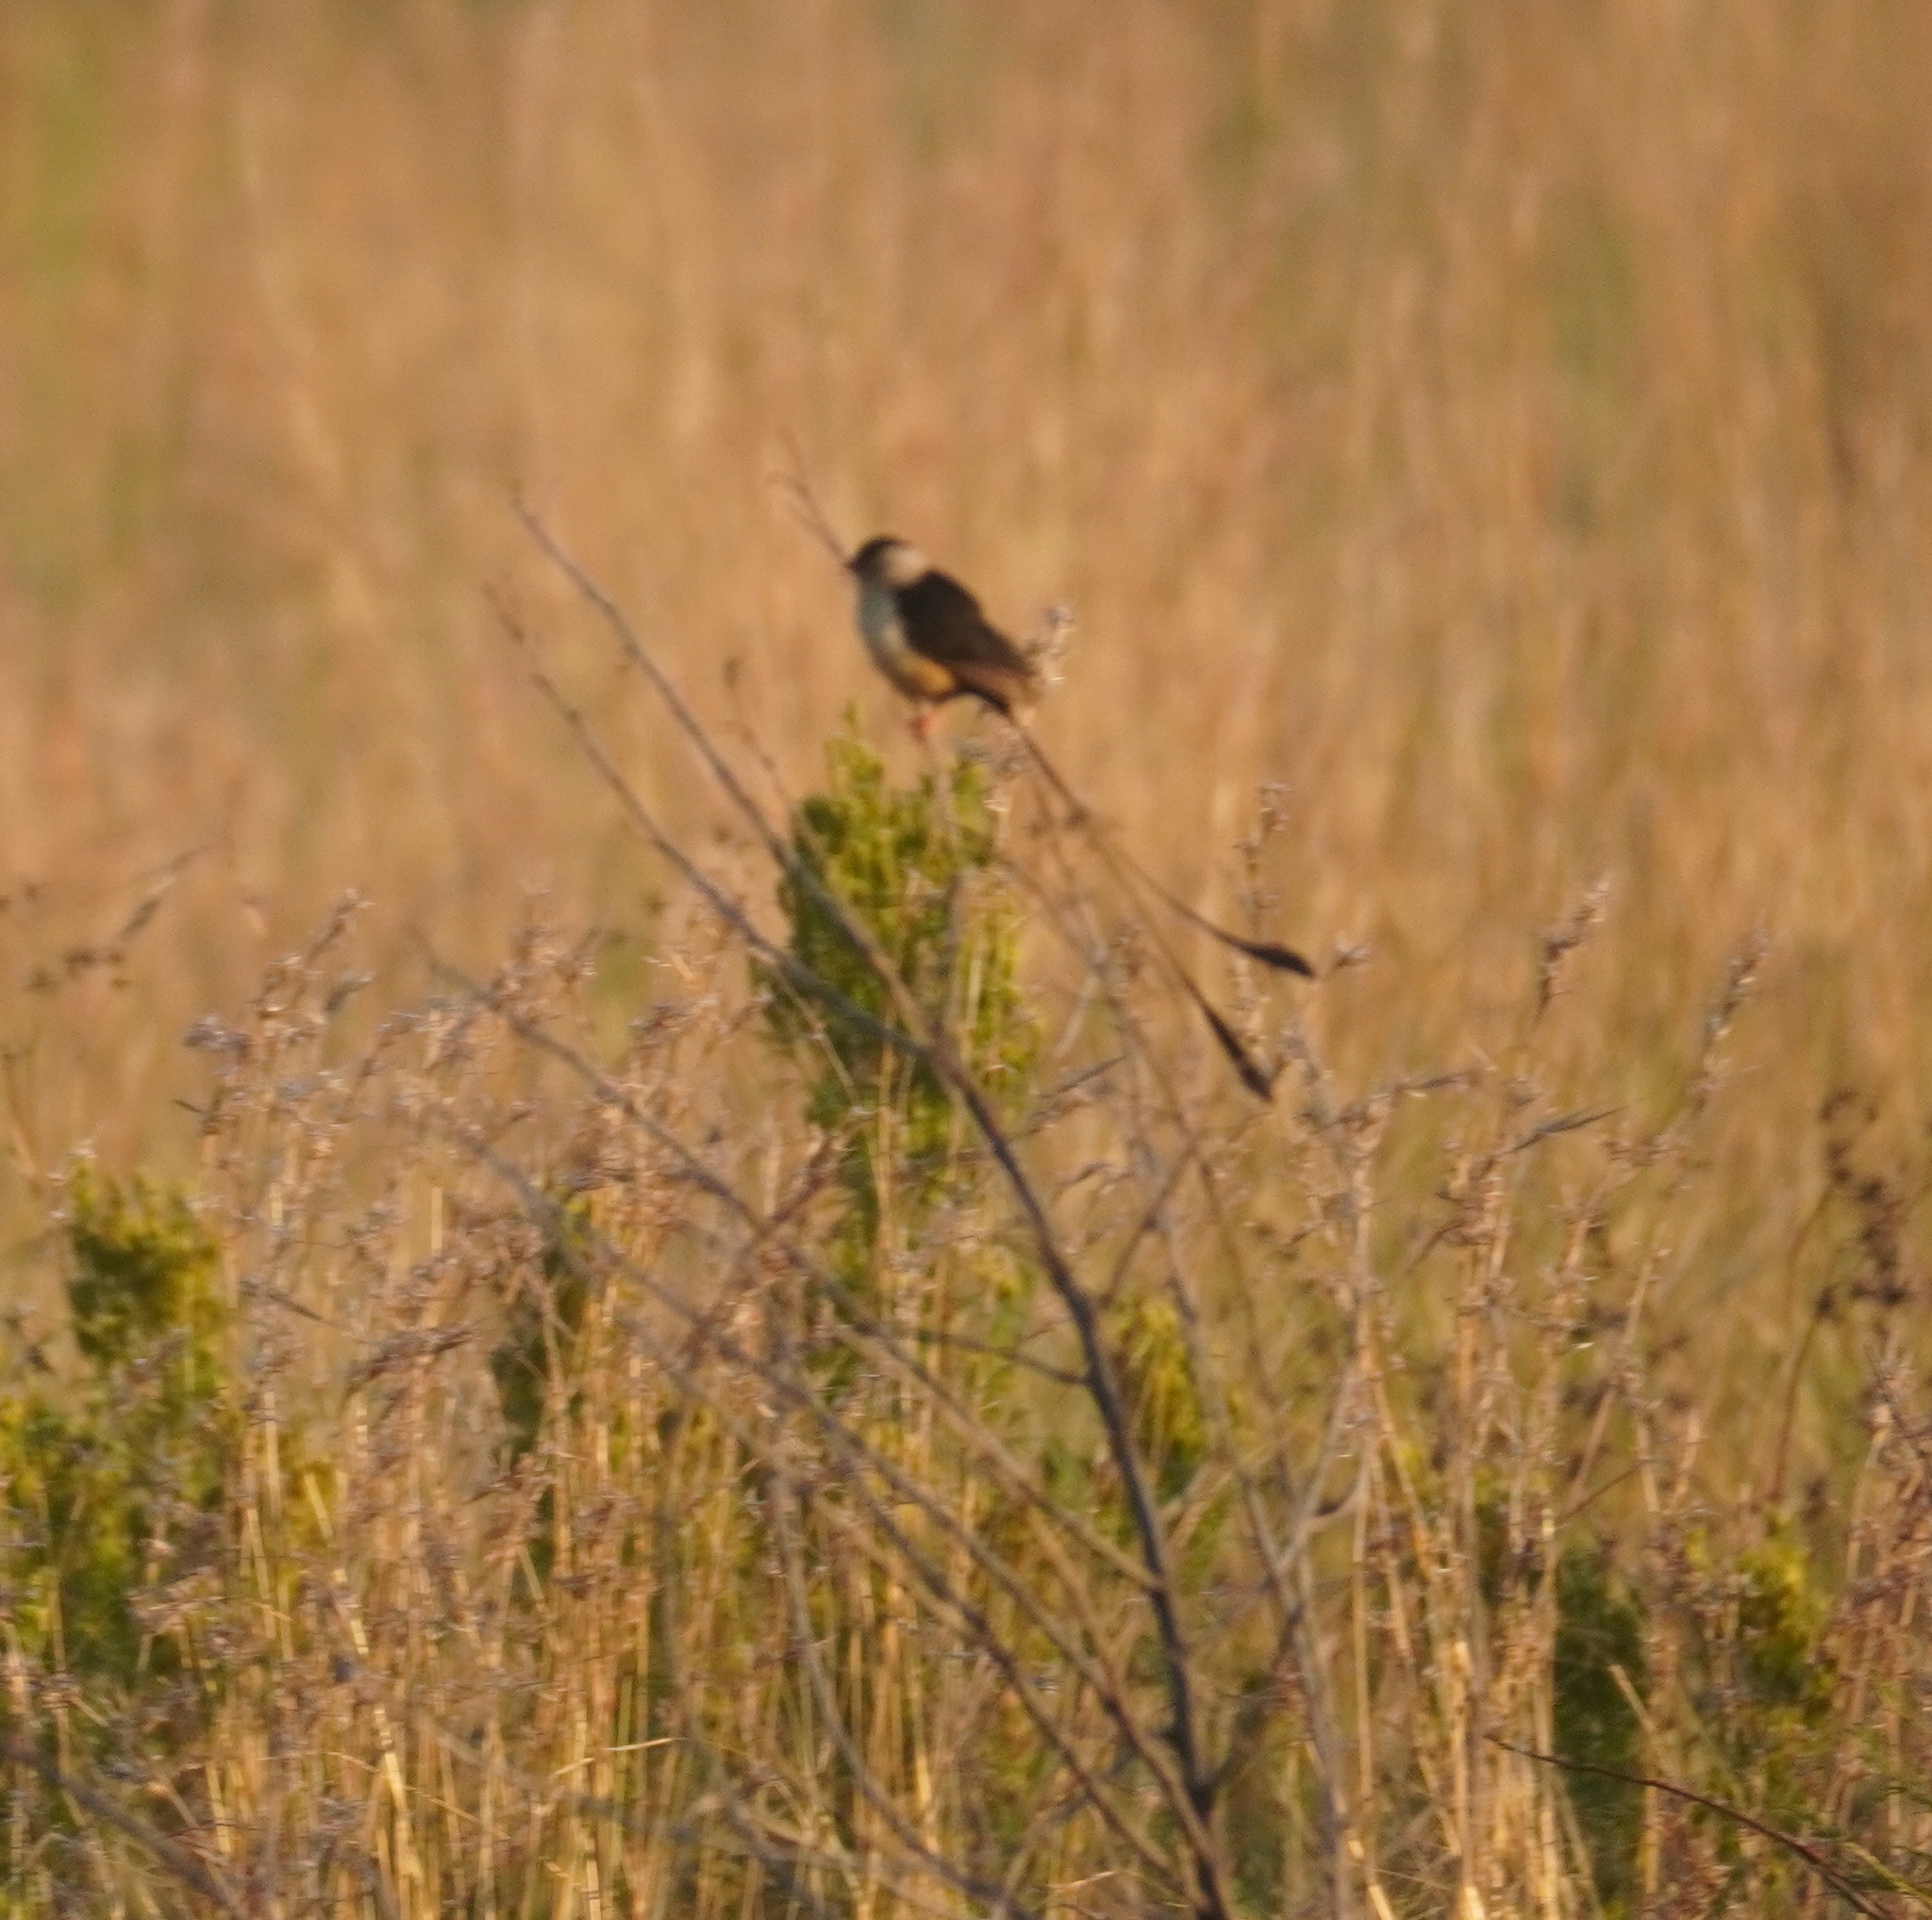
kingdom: Animalia
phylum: Chordata
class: Aves
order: Passeriformes
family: Viduidae
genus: Vidua
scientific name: Vidua regia
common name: Shaft-tailed whydah
